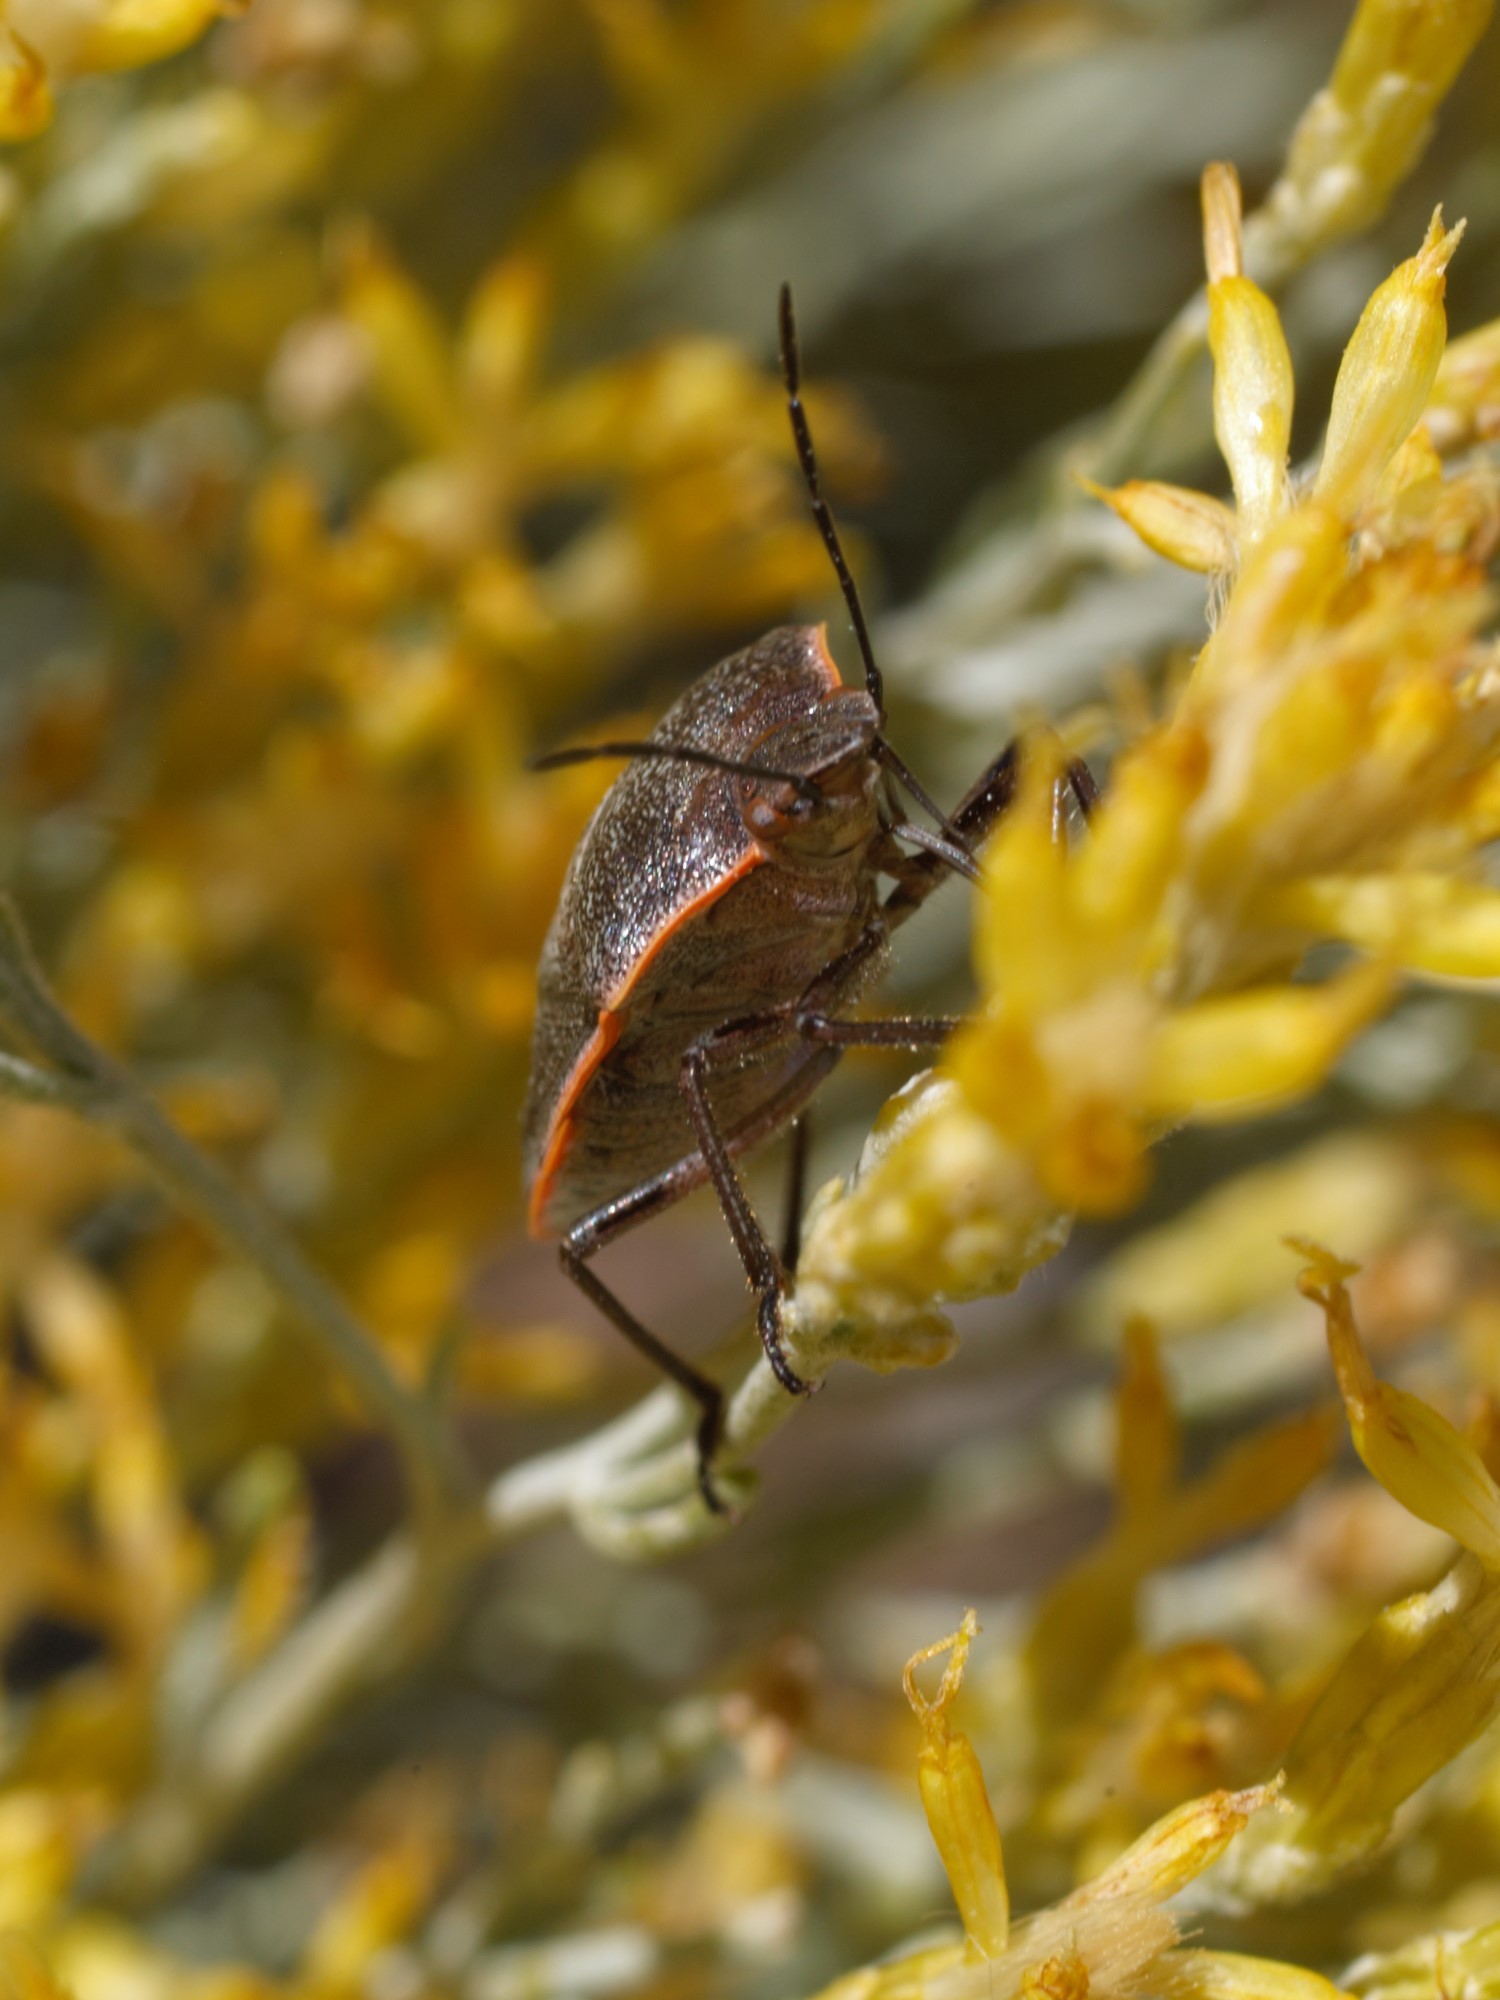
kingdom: Animalia
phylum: Arthropoda
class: Insecta
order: Hemiptera
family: Pentatomidae
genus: Chlorochroa
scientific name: Chlorochroa ligata
